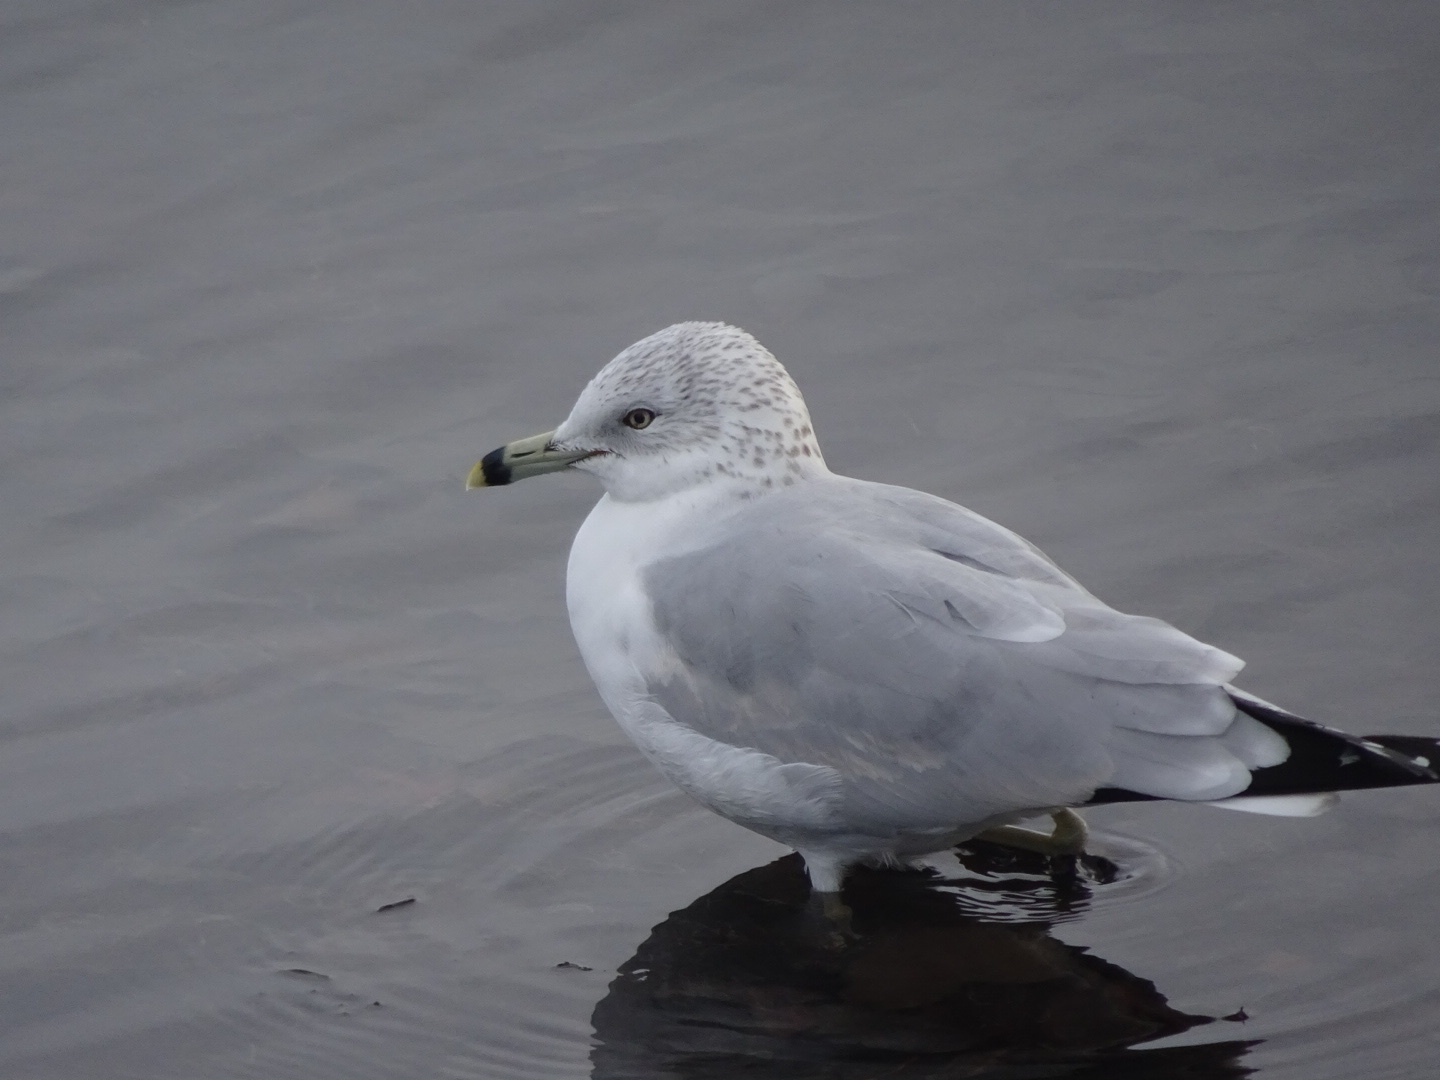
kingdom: Animalia
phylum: Chordata
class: Aves
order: Charadriiformes
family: Laridae
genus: Larus
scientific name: Larus delawarensis
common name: Ring-billed gull
